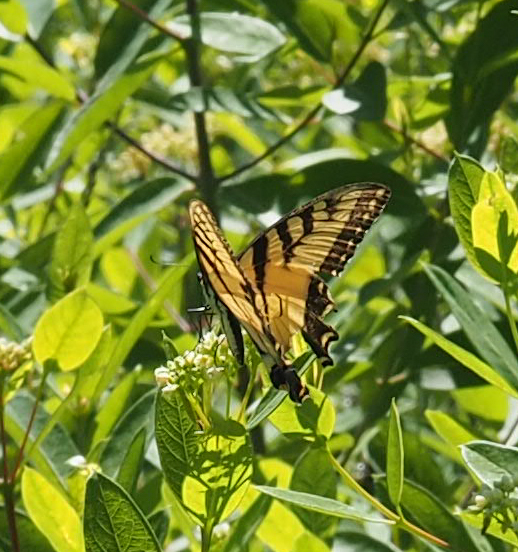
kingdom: Animalia
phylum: Arthropoda
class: Insecta
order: Lepidoptera
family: Papilionidae
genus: Papilio
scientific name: Papilio glaucus
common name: Tiger swallowtail
